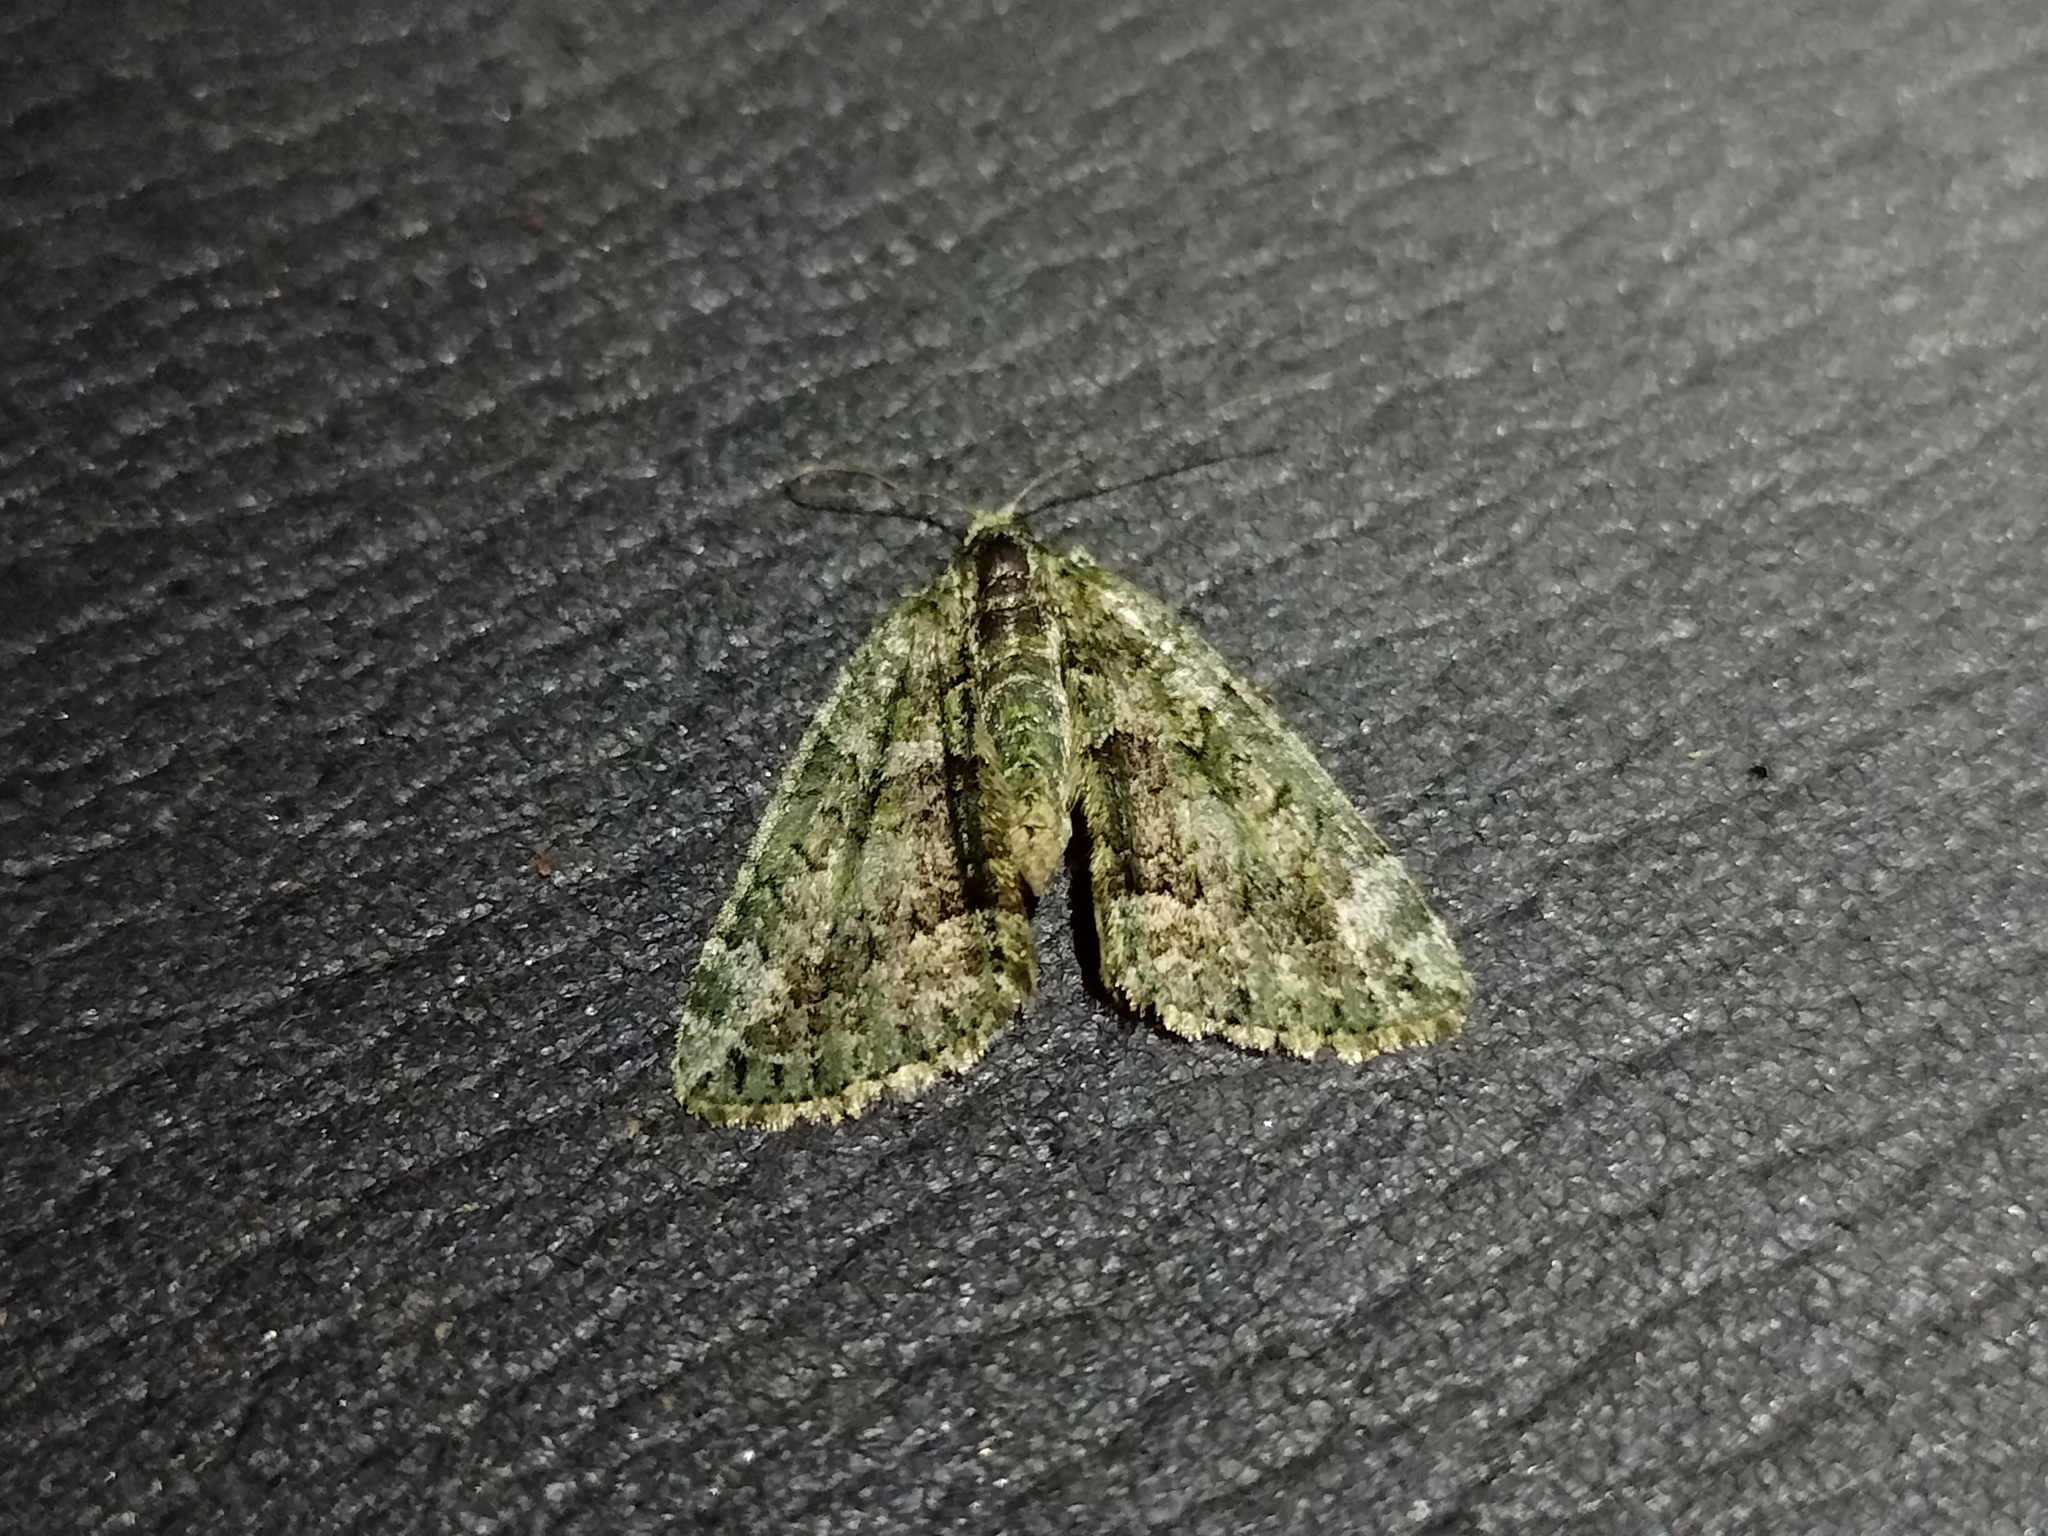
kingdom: Animalia
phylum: Arthropoda
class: Insecta
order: Lepidoptera
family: Geometridae
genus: Chloroclysta
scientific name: Chloroclysta siterata
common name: Red-green carpet
